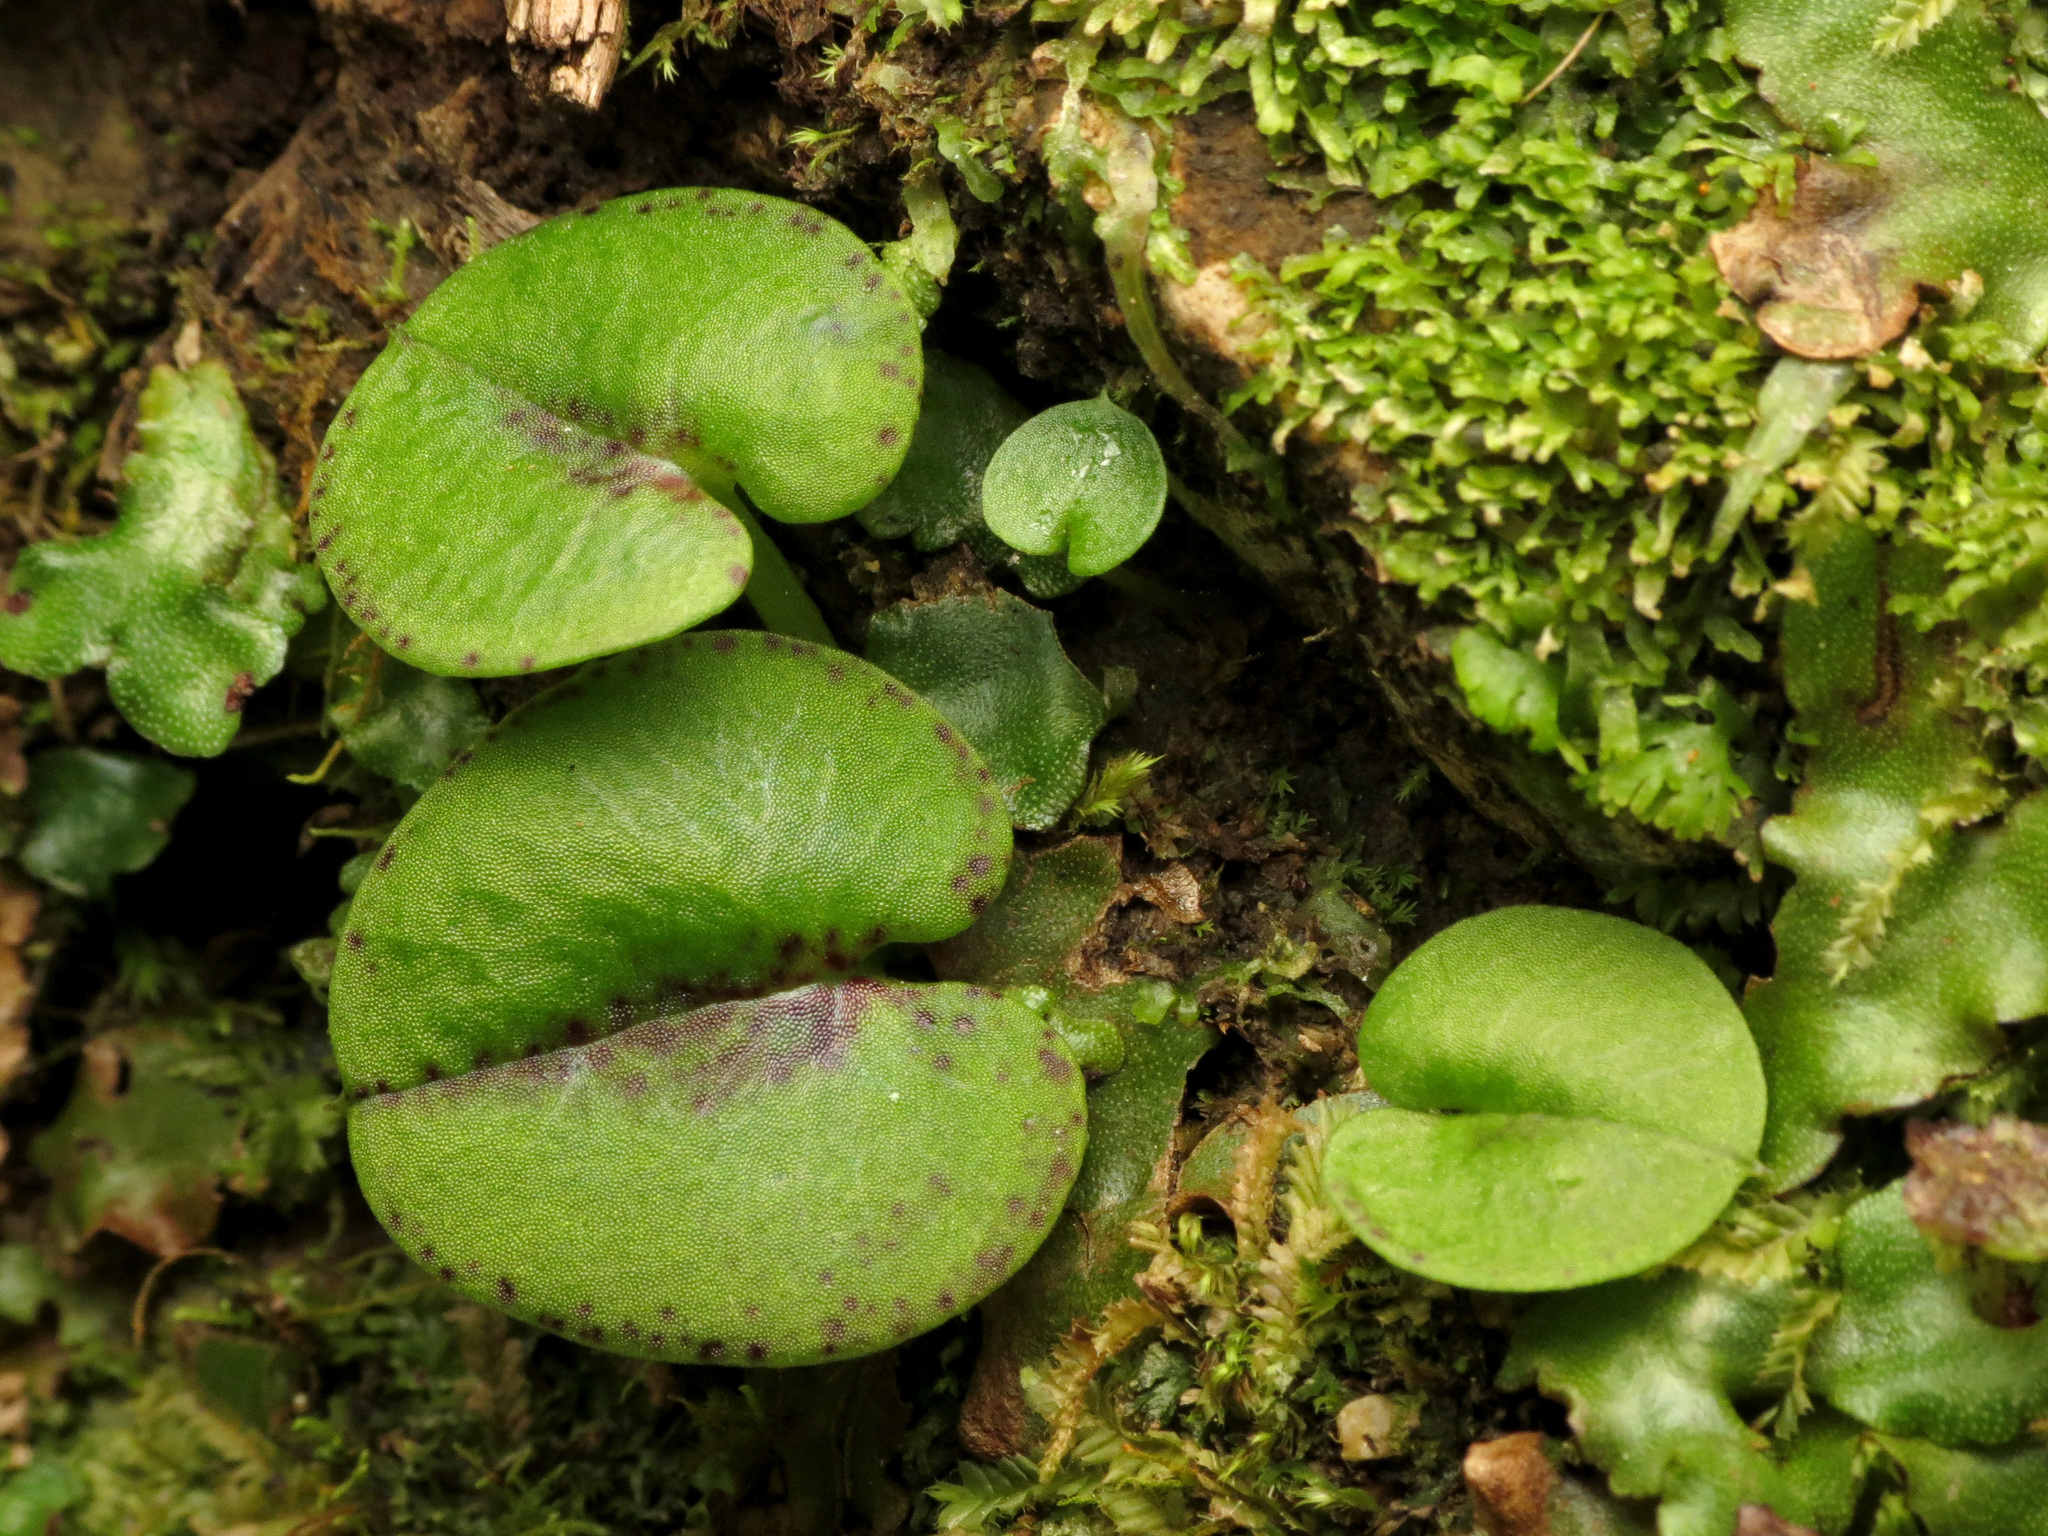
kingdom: Plantae
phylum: Tracheophyta
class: Liliopsida
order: Asparagales
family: Orchidaceae
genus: Corybas
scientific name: Corybas hatchii
